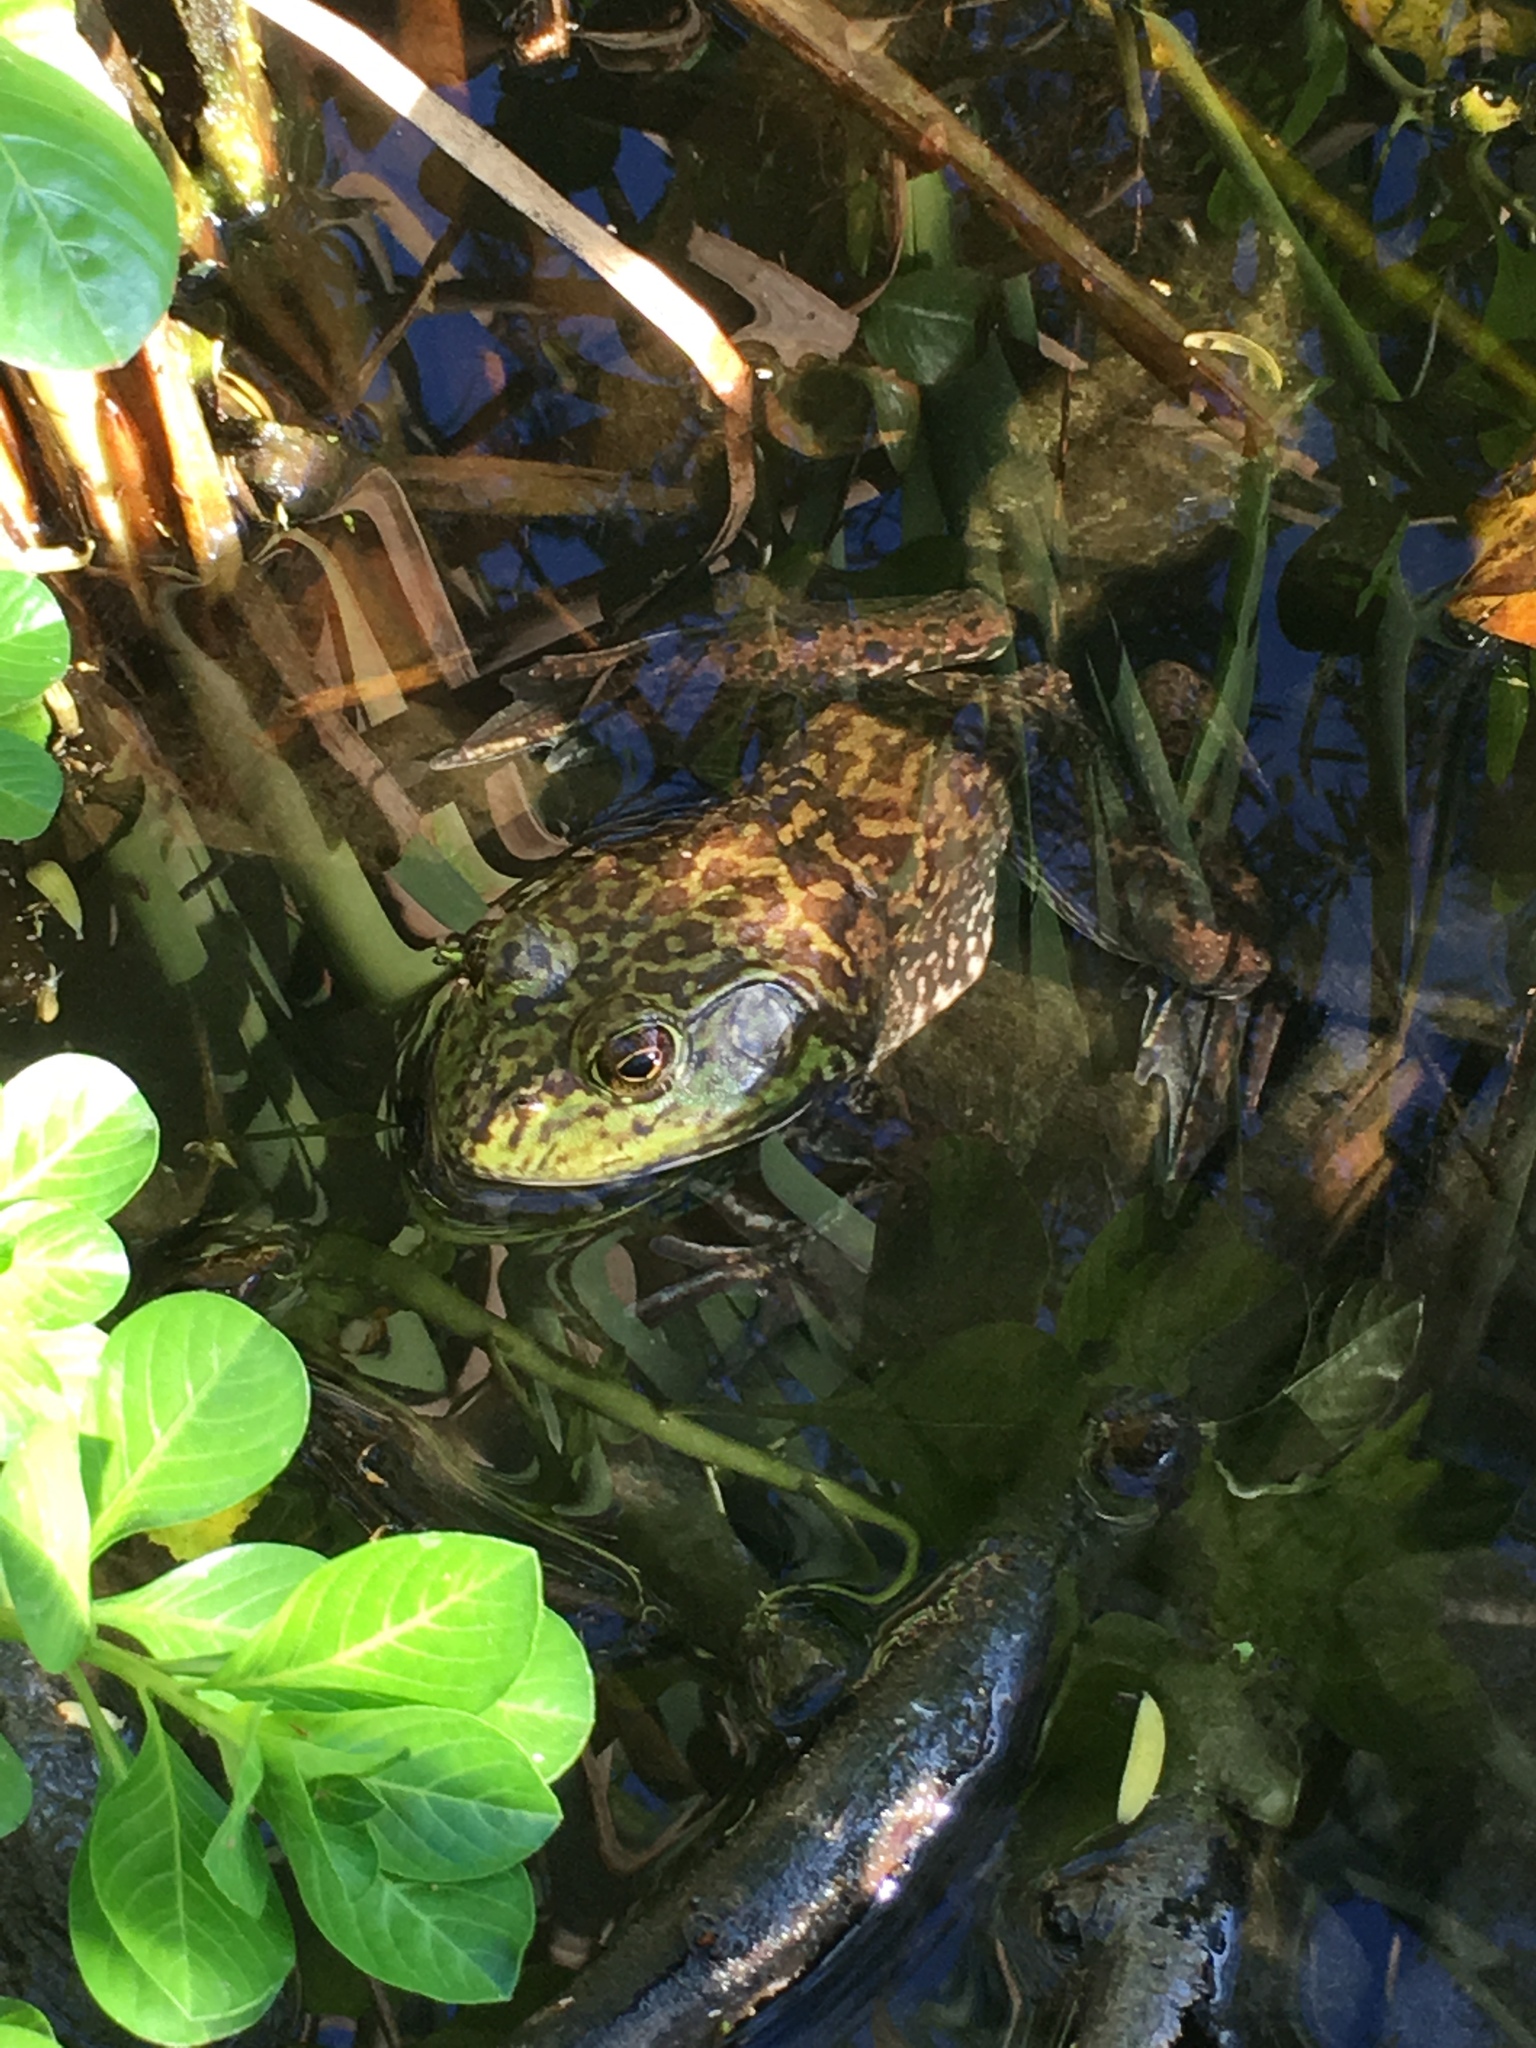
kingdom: Animalia
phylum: Chordata
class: Amphibia
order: Anura
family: Ranidae
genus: Lithobates
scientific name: Lithobates catesbeianus
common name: American bullfrog
